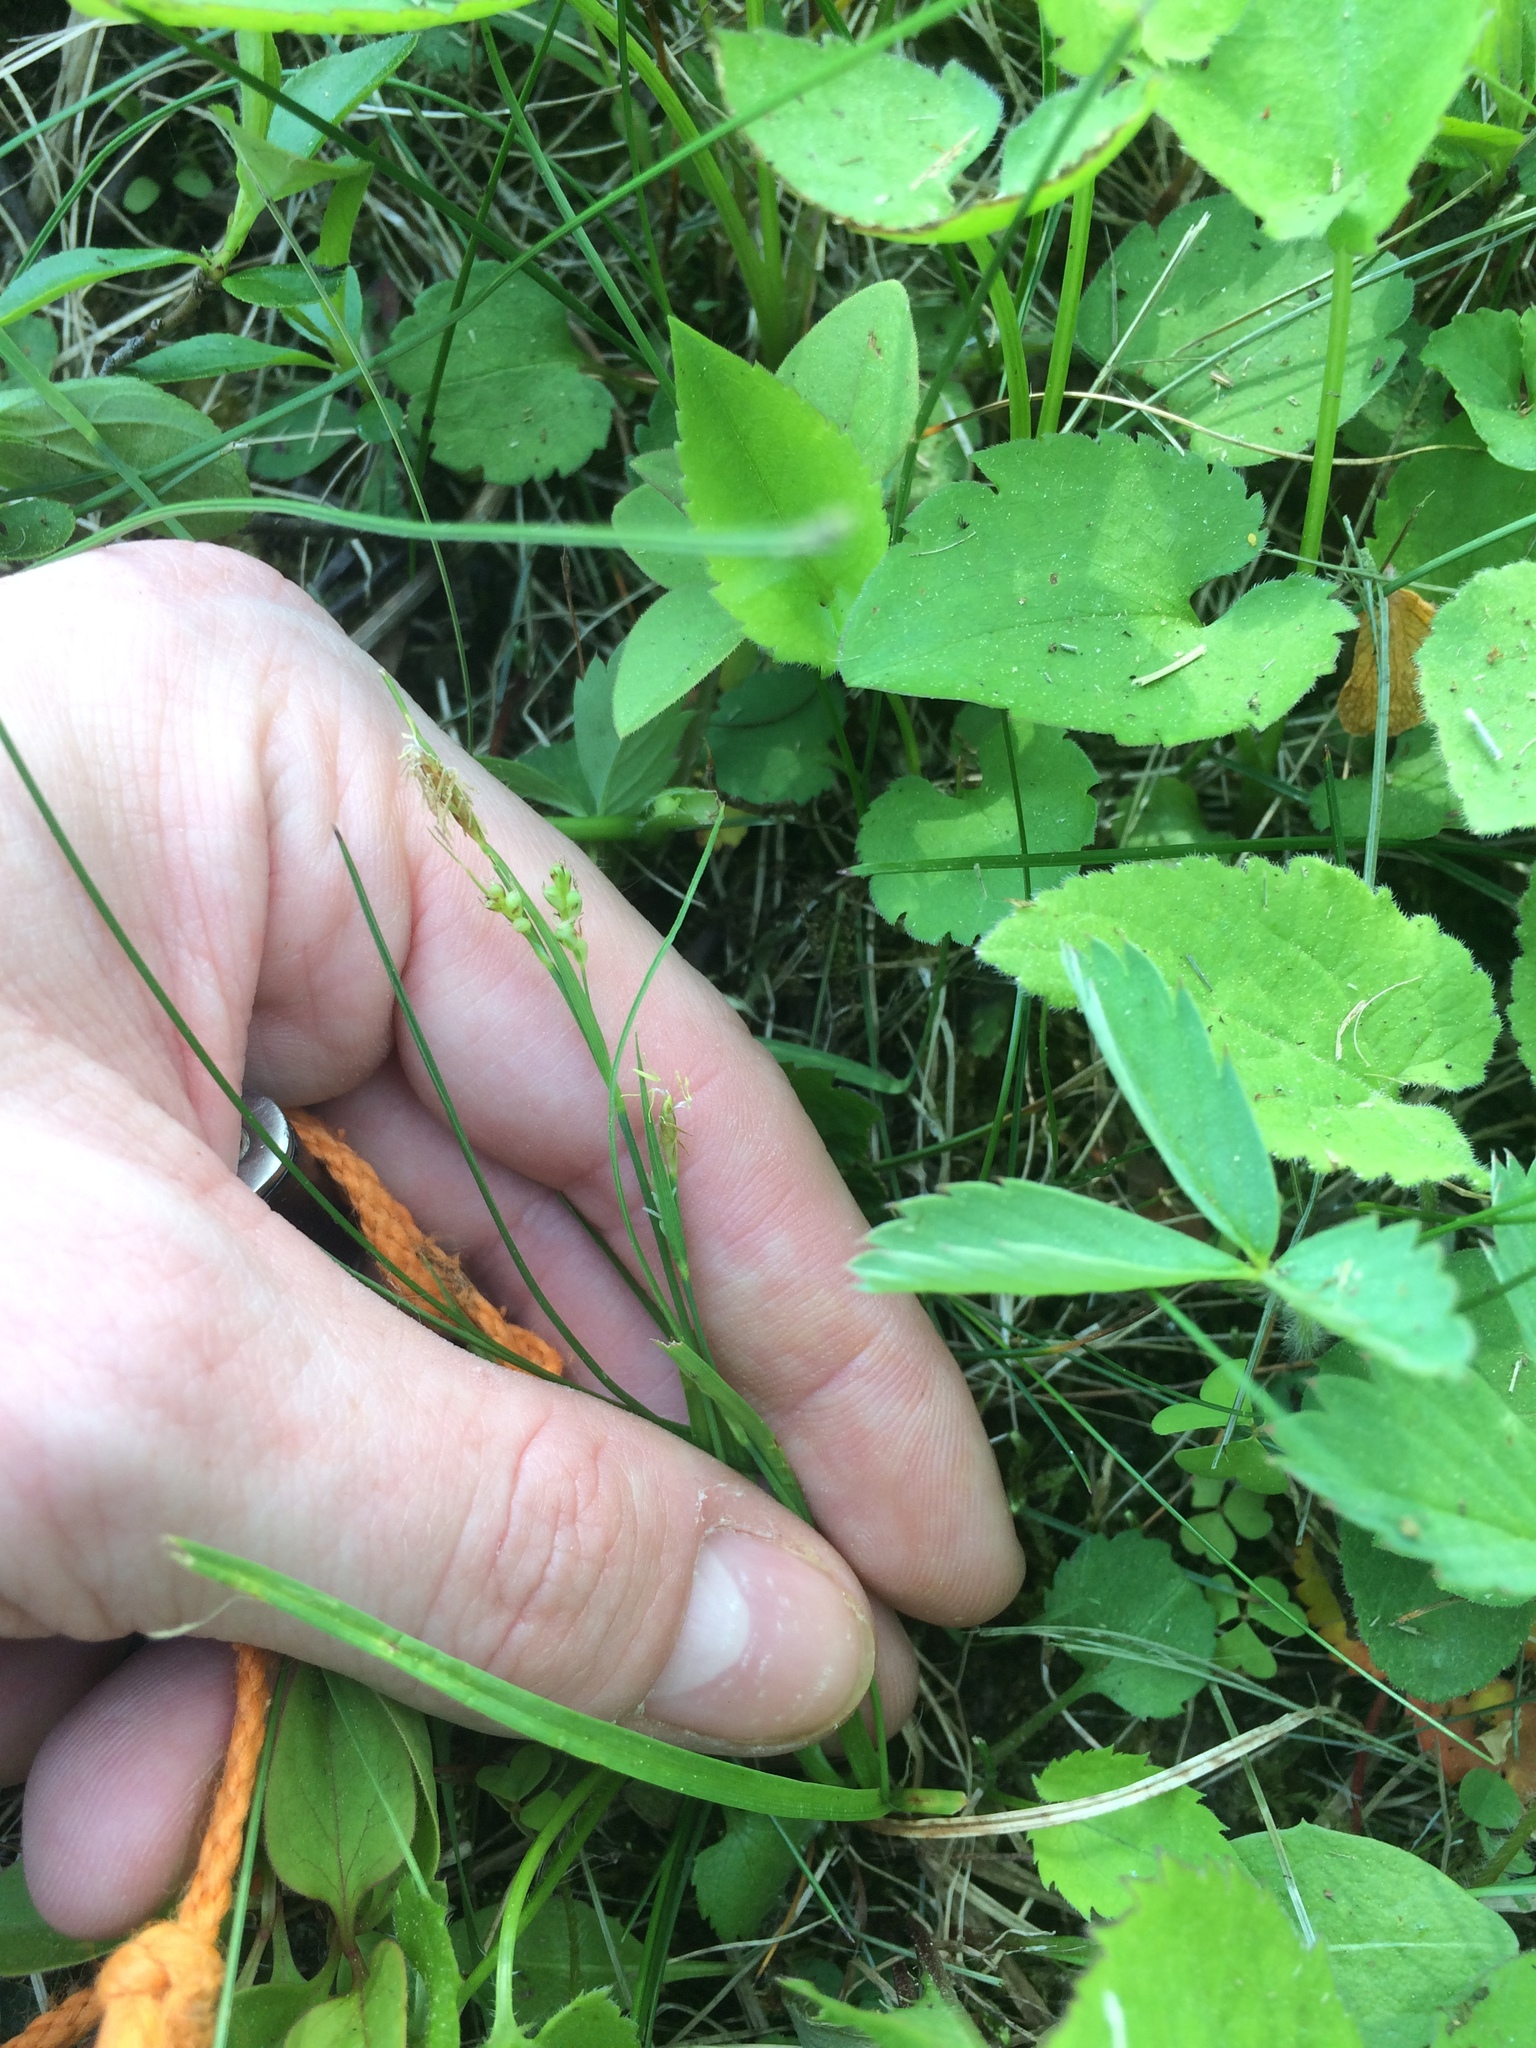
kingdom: Plantae
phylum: Tracheophyta
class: Liliopsida
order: Poales
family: Cyperaceae
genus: Carex
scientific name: Carex aurea
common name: Golden sedge
